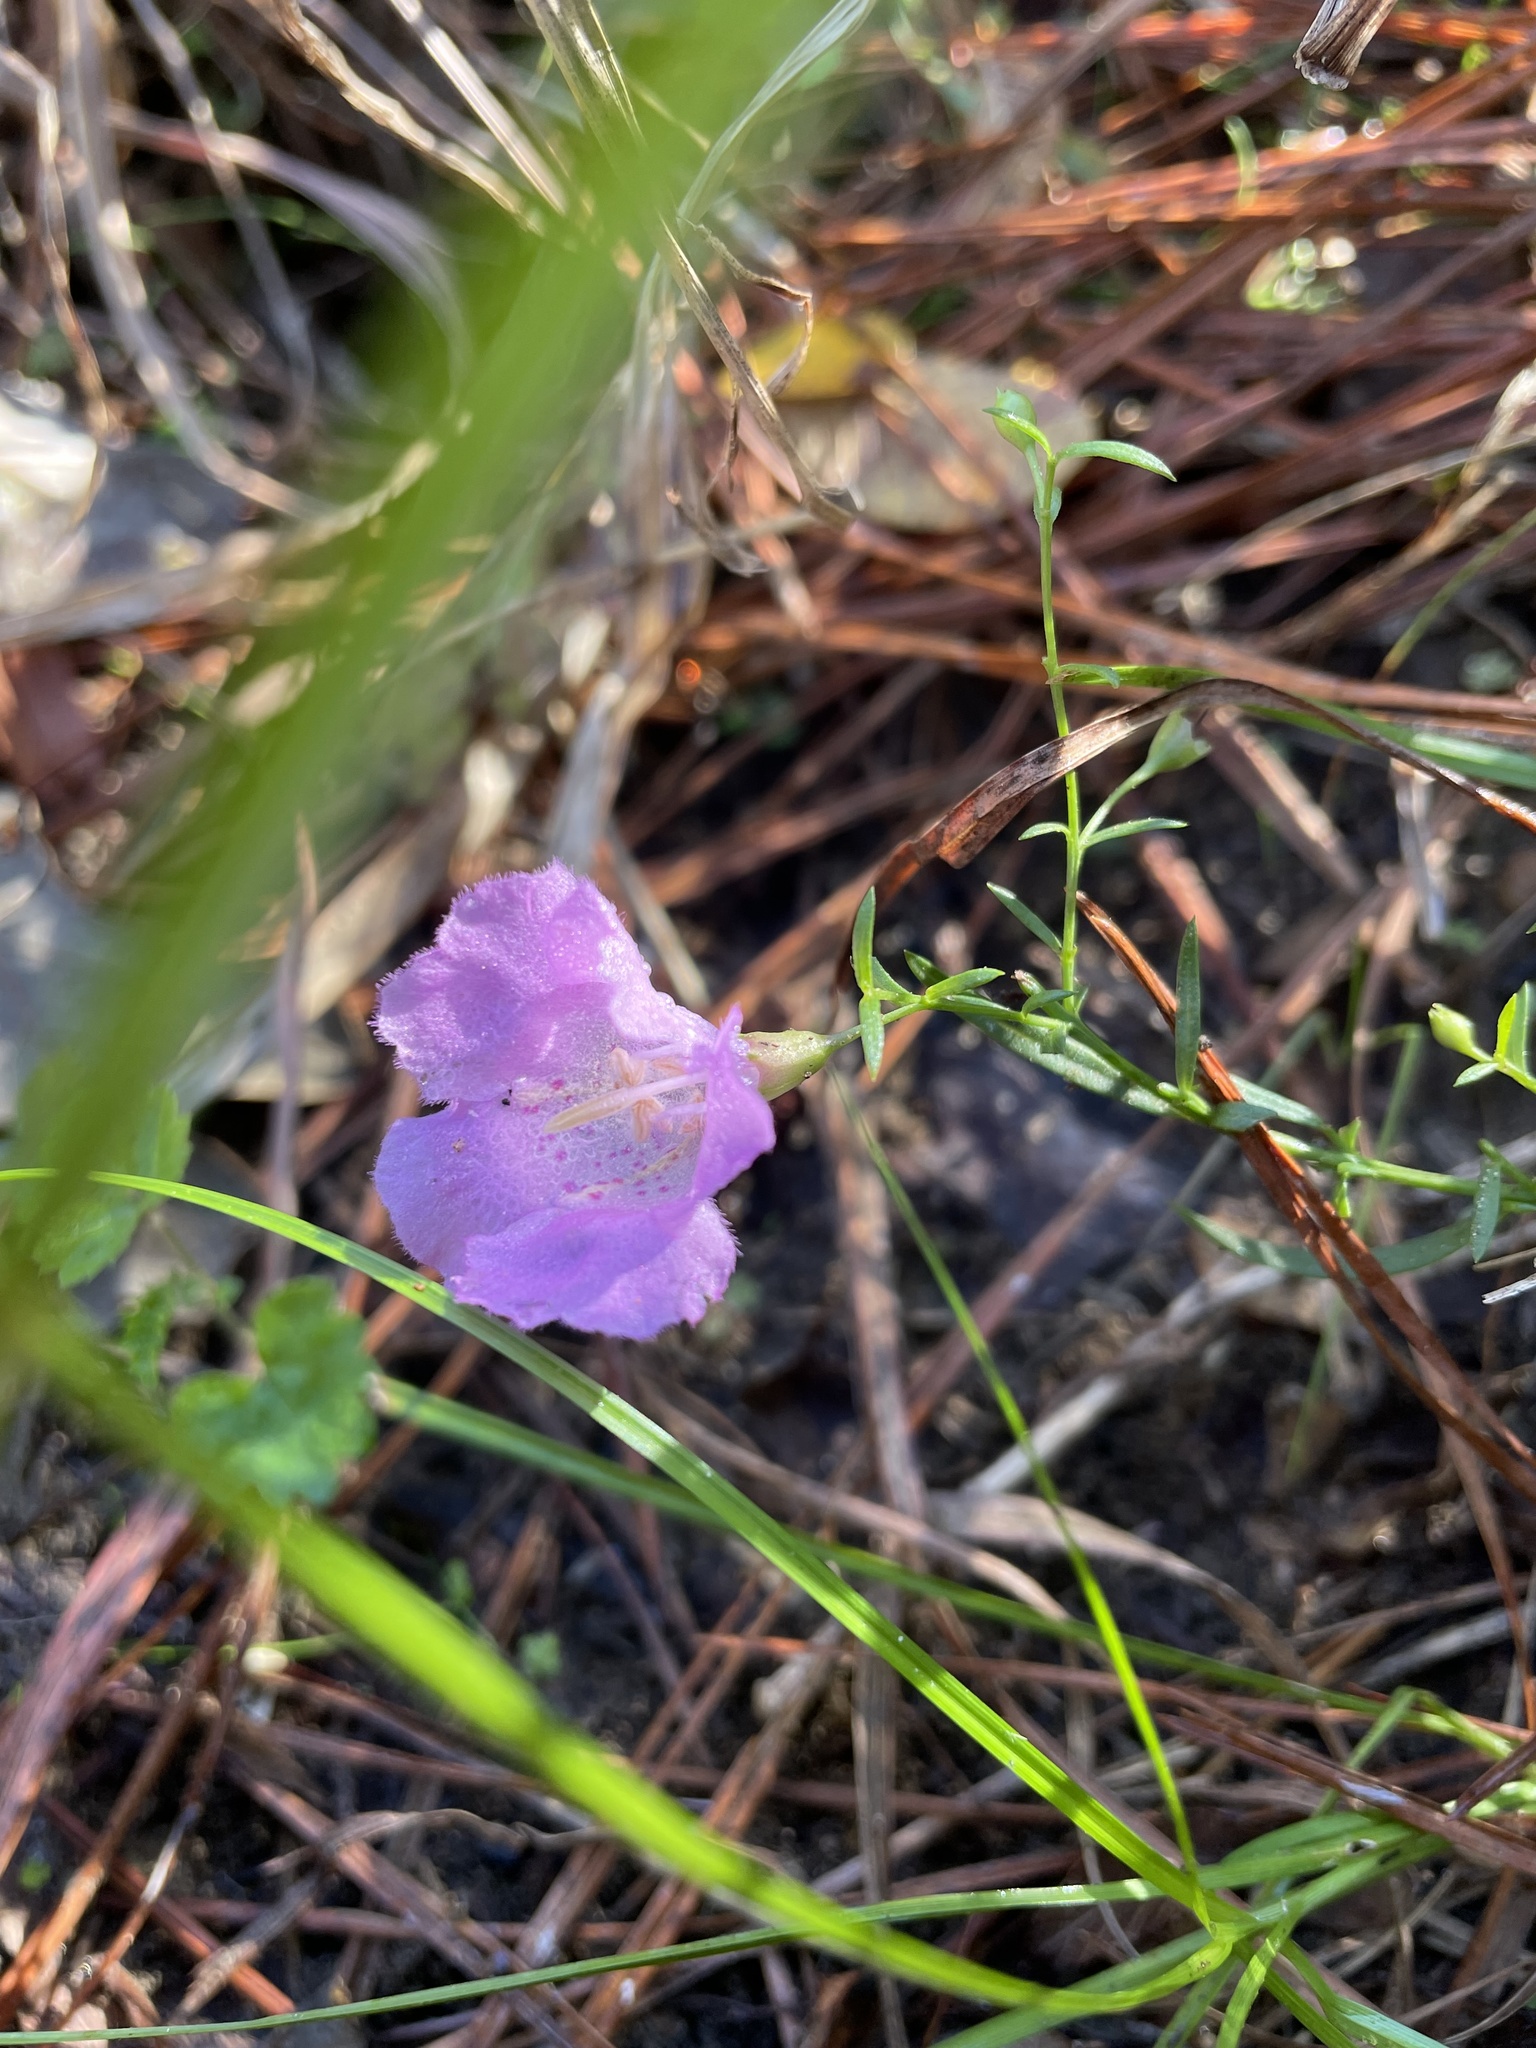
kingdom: Plantae
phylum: Tracheophyta
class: Magnoliopsida
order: Lamiales
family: Orobanchaceae
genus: Agalinis
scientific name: Agalinis strictifolia
